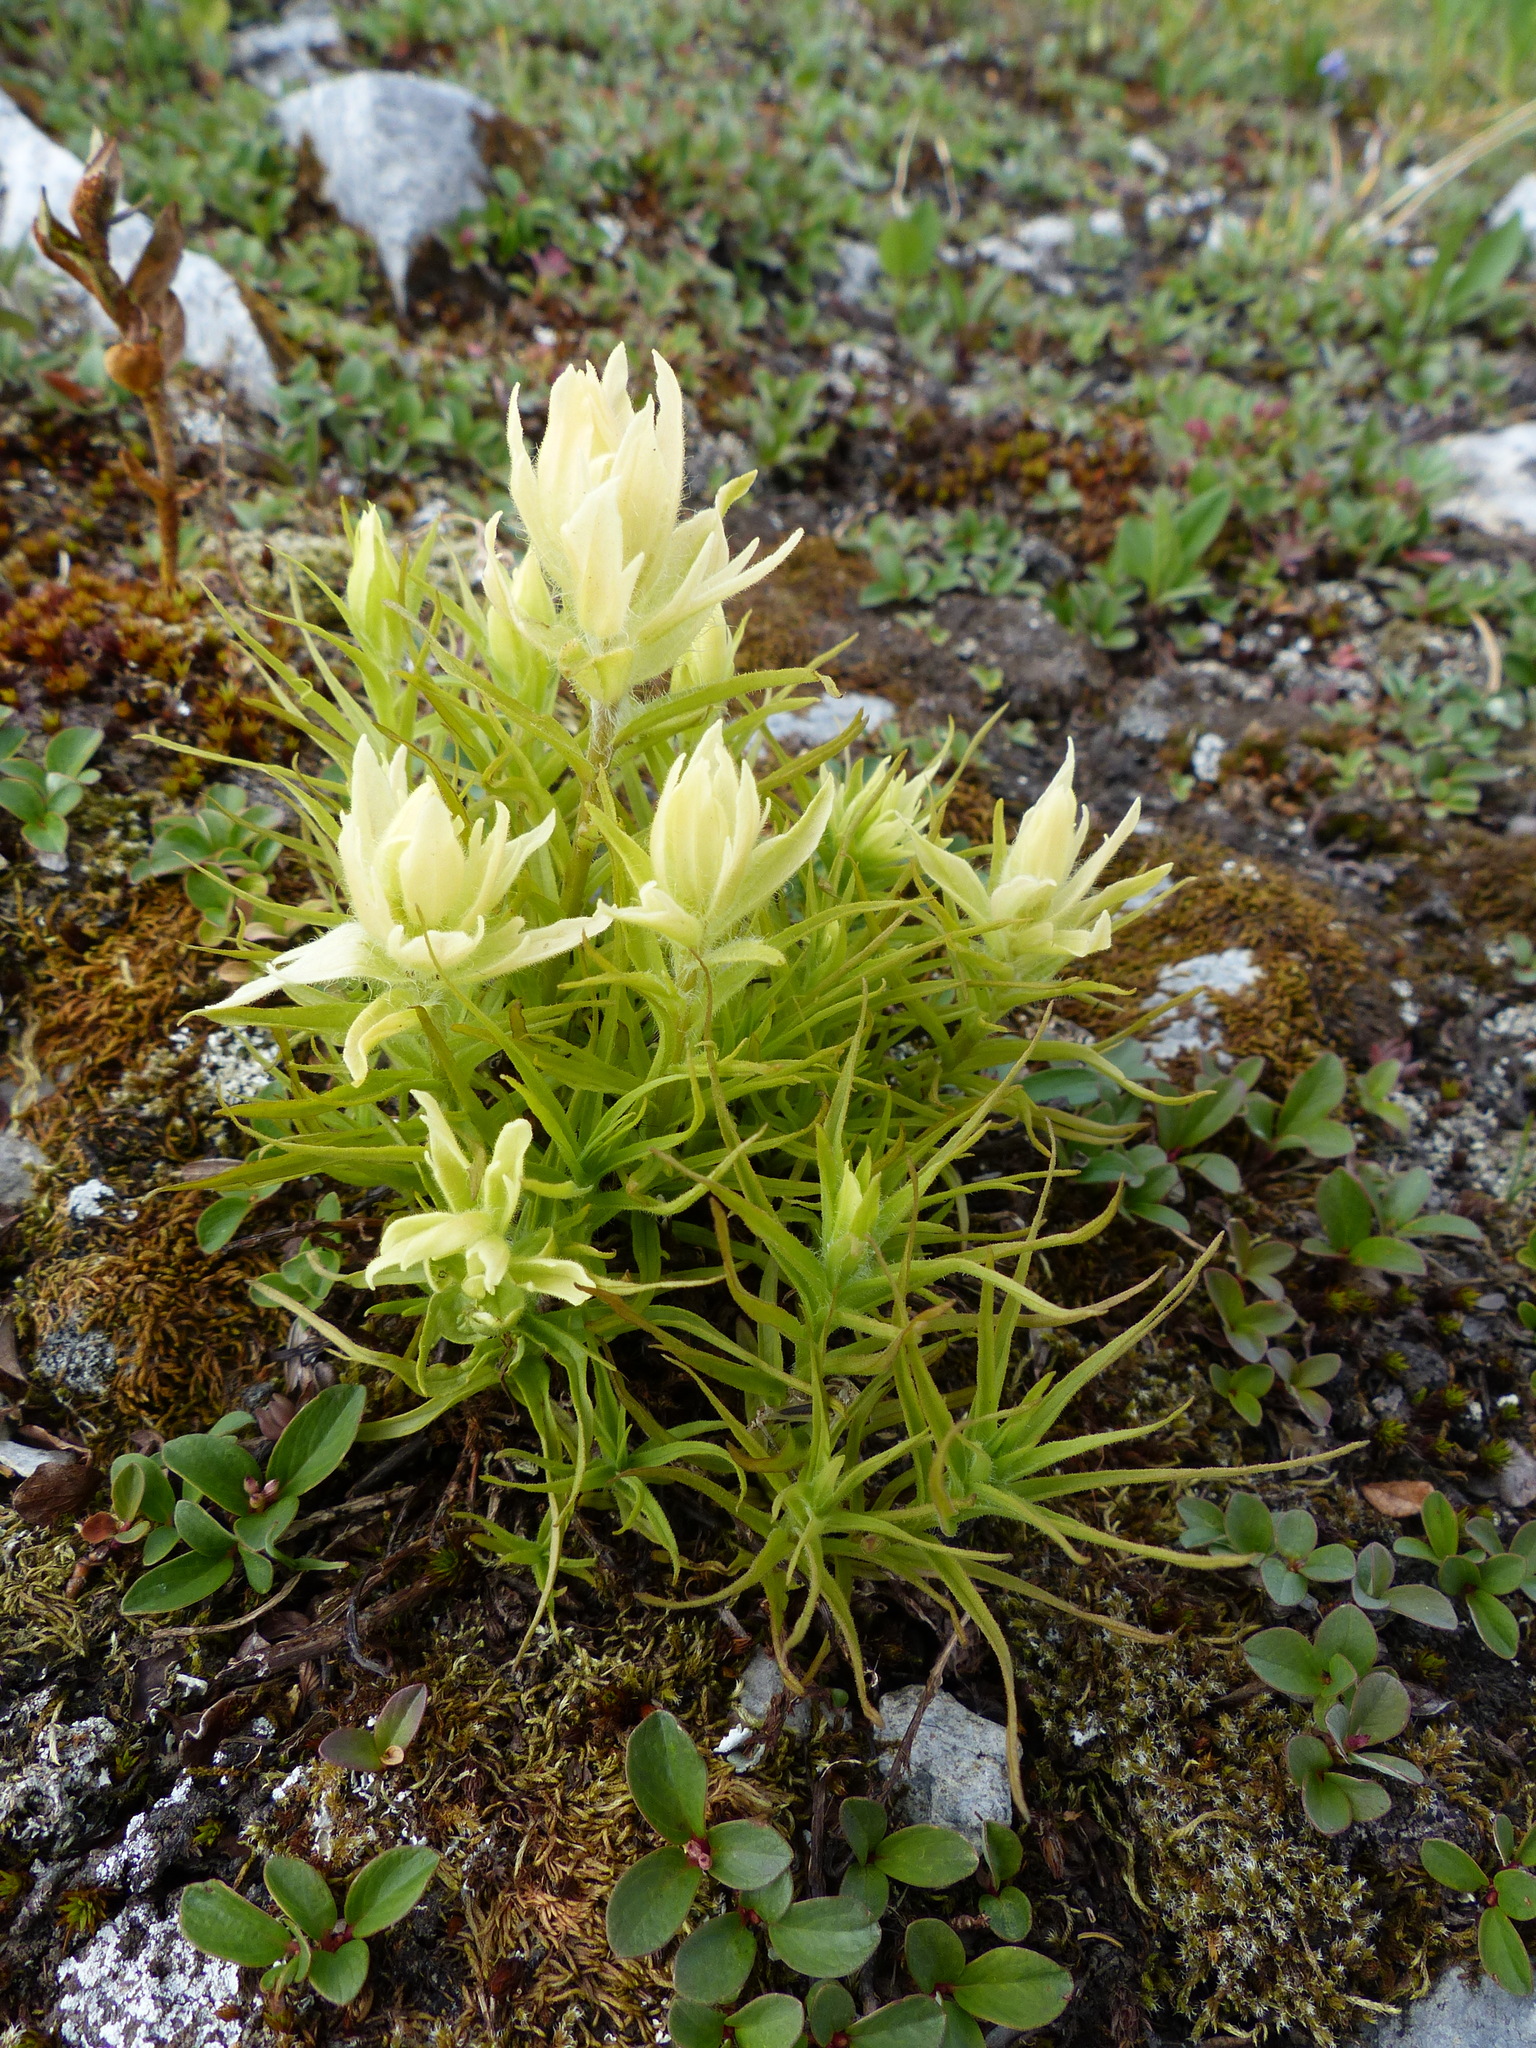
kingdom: Plantae
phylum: Tracheophyta
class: Magnoliopsida
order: Lamiales
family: Orobanchaceae
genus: Castilleja
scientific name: Castilleja occidentalis
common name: Western paintbrush
